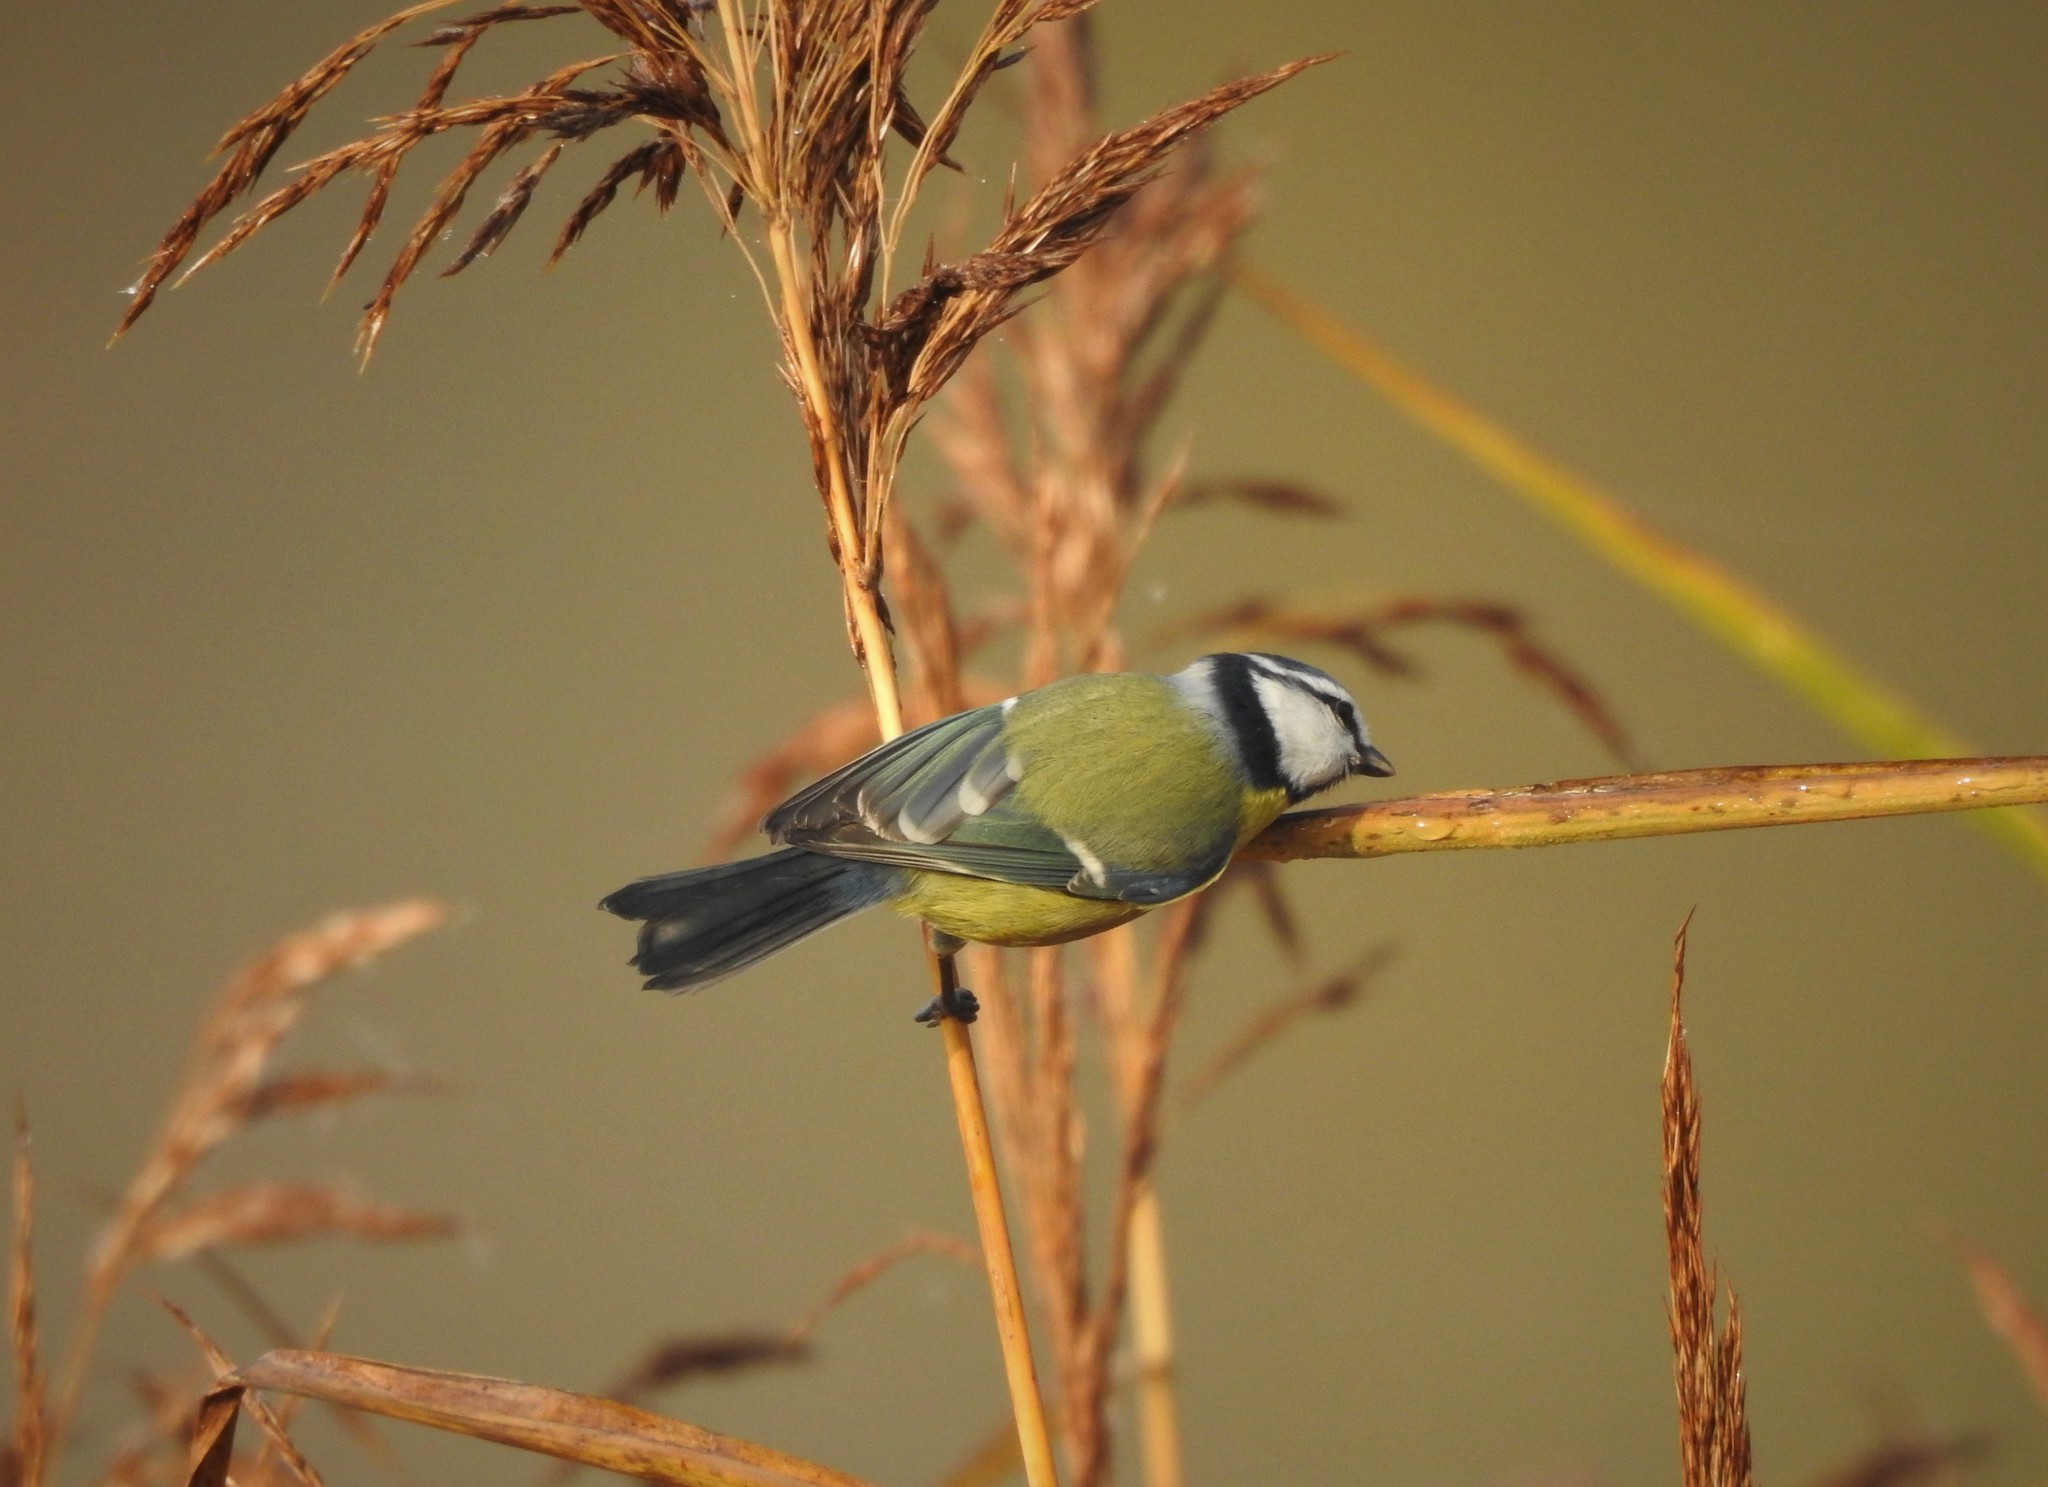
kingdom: Animalia
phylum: Chordata
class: Aves
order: Passeriformes
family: Paridae
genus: Cyanistes
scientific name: Cyanistes caeruleus
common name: Eurasian blue tit
